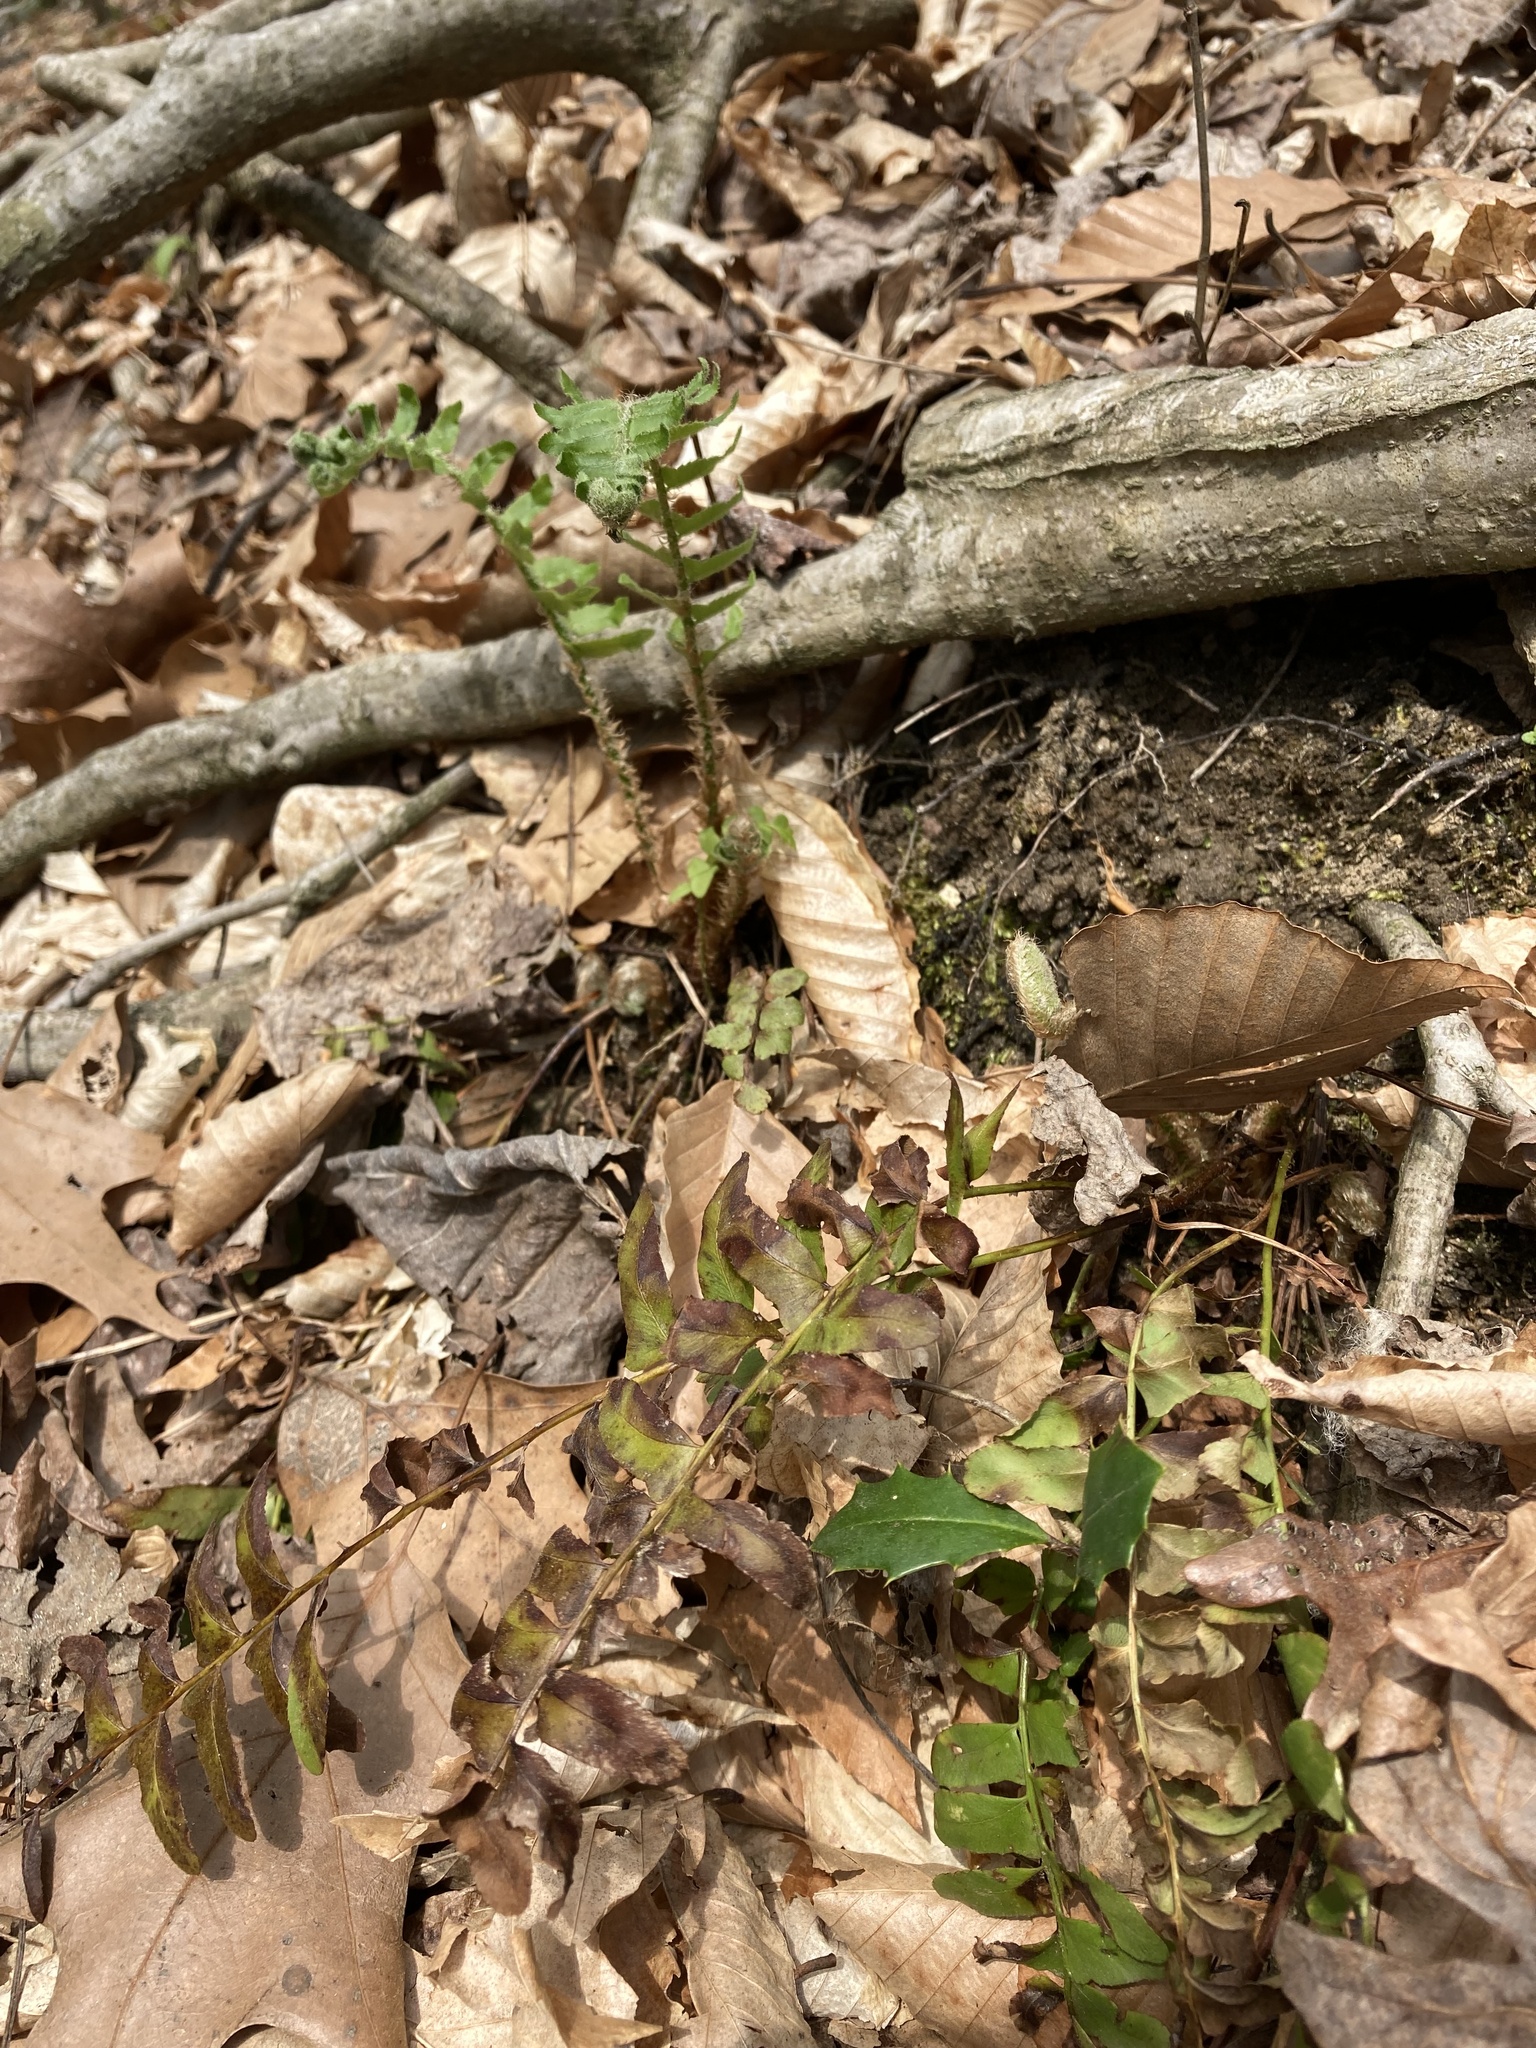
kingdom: Plantae
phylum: Tracheophyta
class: Polypodiopsida
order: Polypodiales
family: Dryopteridaceae
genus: Polystichum
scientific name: Polystichum acrostichoides
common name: Christmas fern
